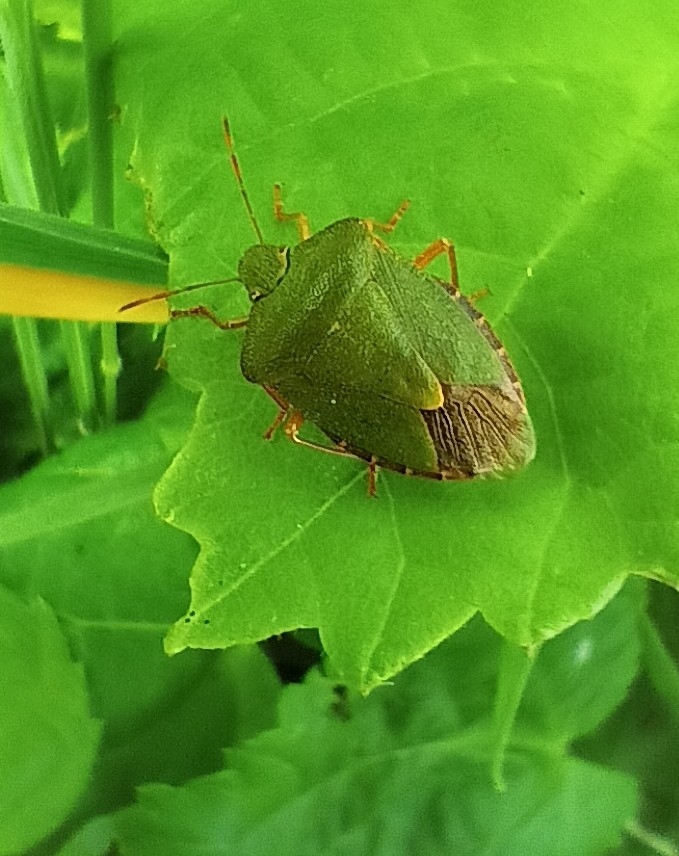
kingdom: Animalia
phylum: Arthropoda
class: Insecta
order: Hemiptera
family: Pentatomidae
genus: Palomena
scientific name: Palomena prasina
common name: Green shieldbug
